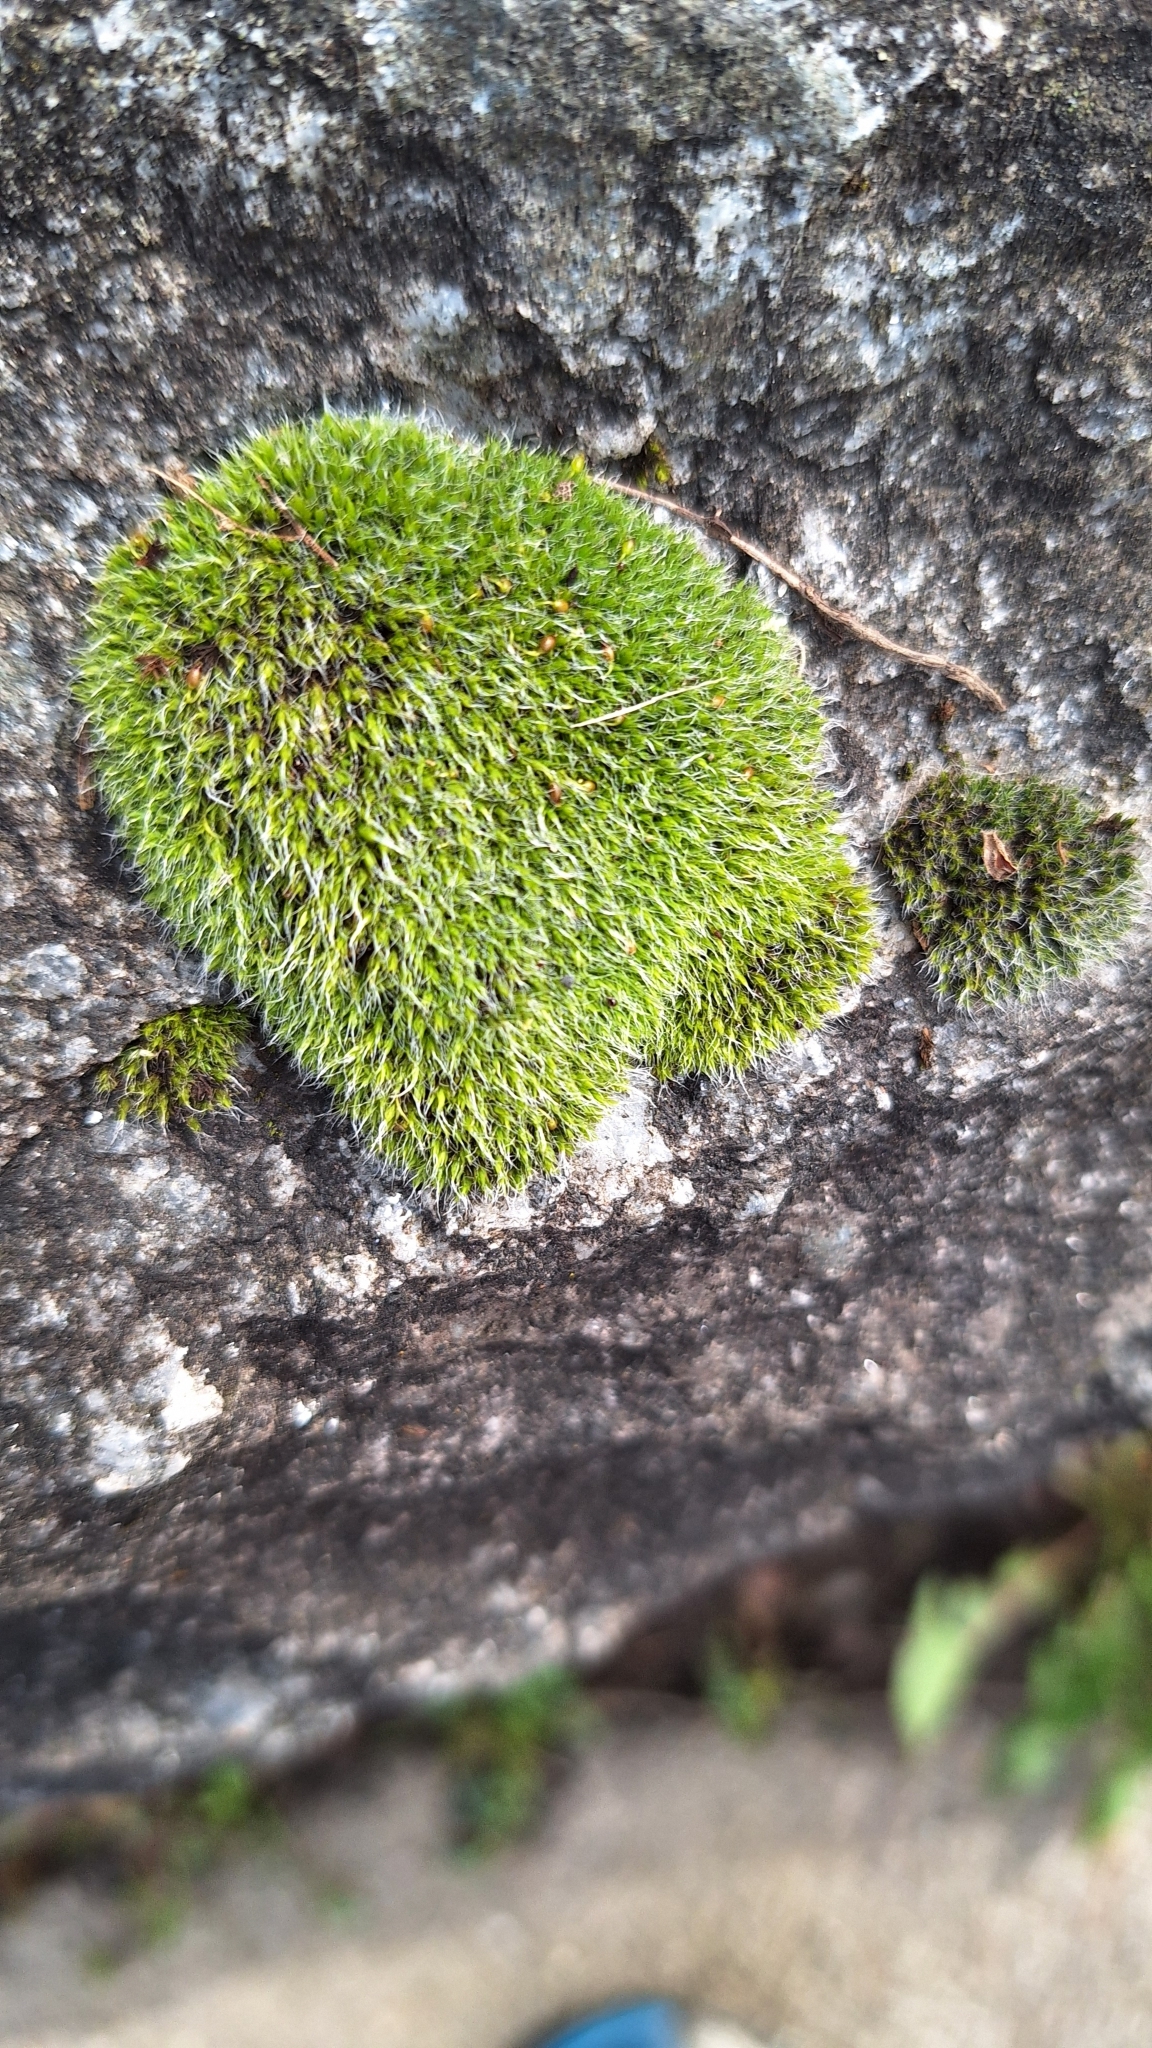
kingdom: Plantae
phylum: Bryophyta
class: Bryopsida
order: Grimmiales
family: Grimmiaceae
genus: Grimmia
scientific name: Grimmia pulvinata
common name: Grey-cushioned grimmia
